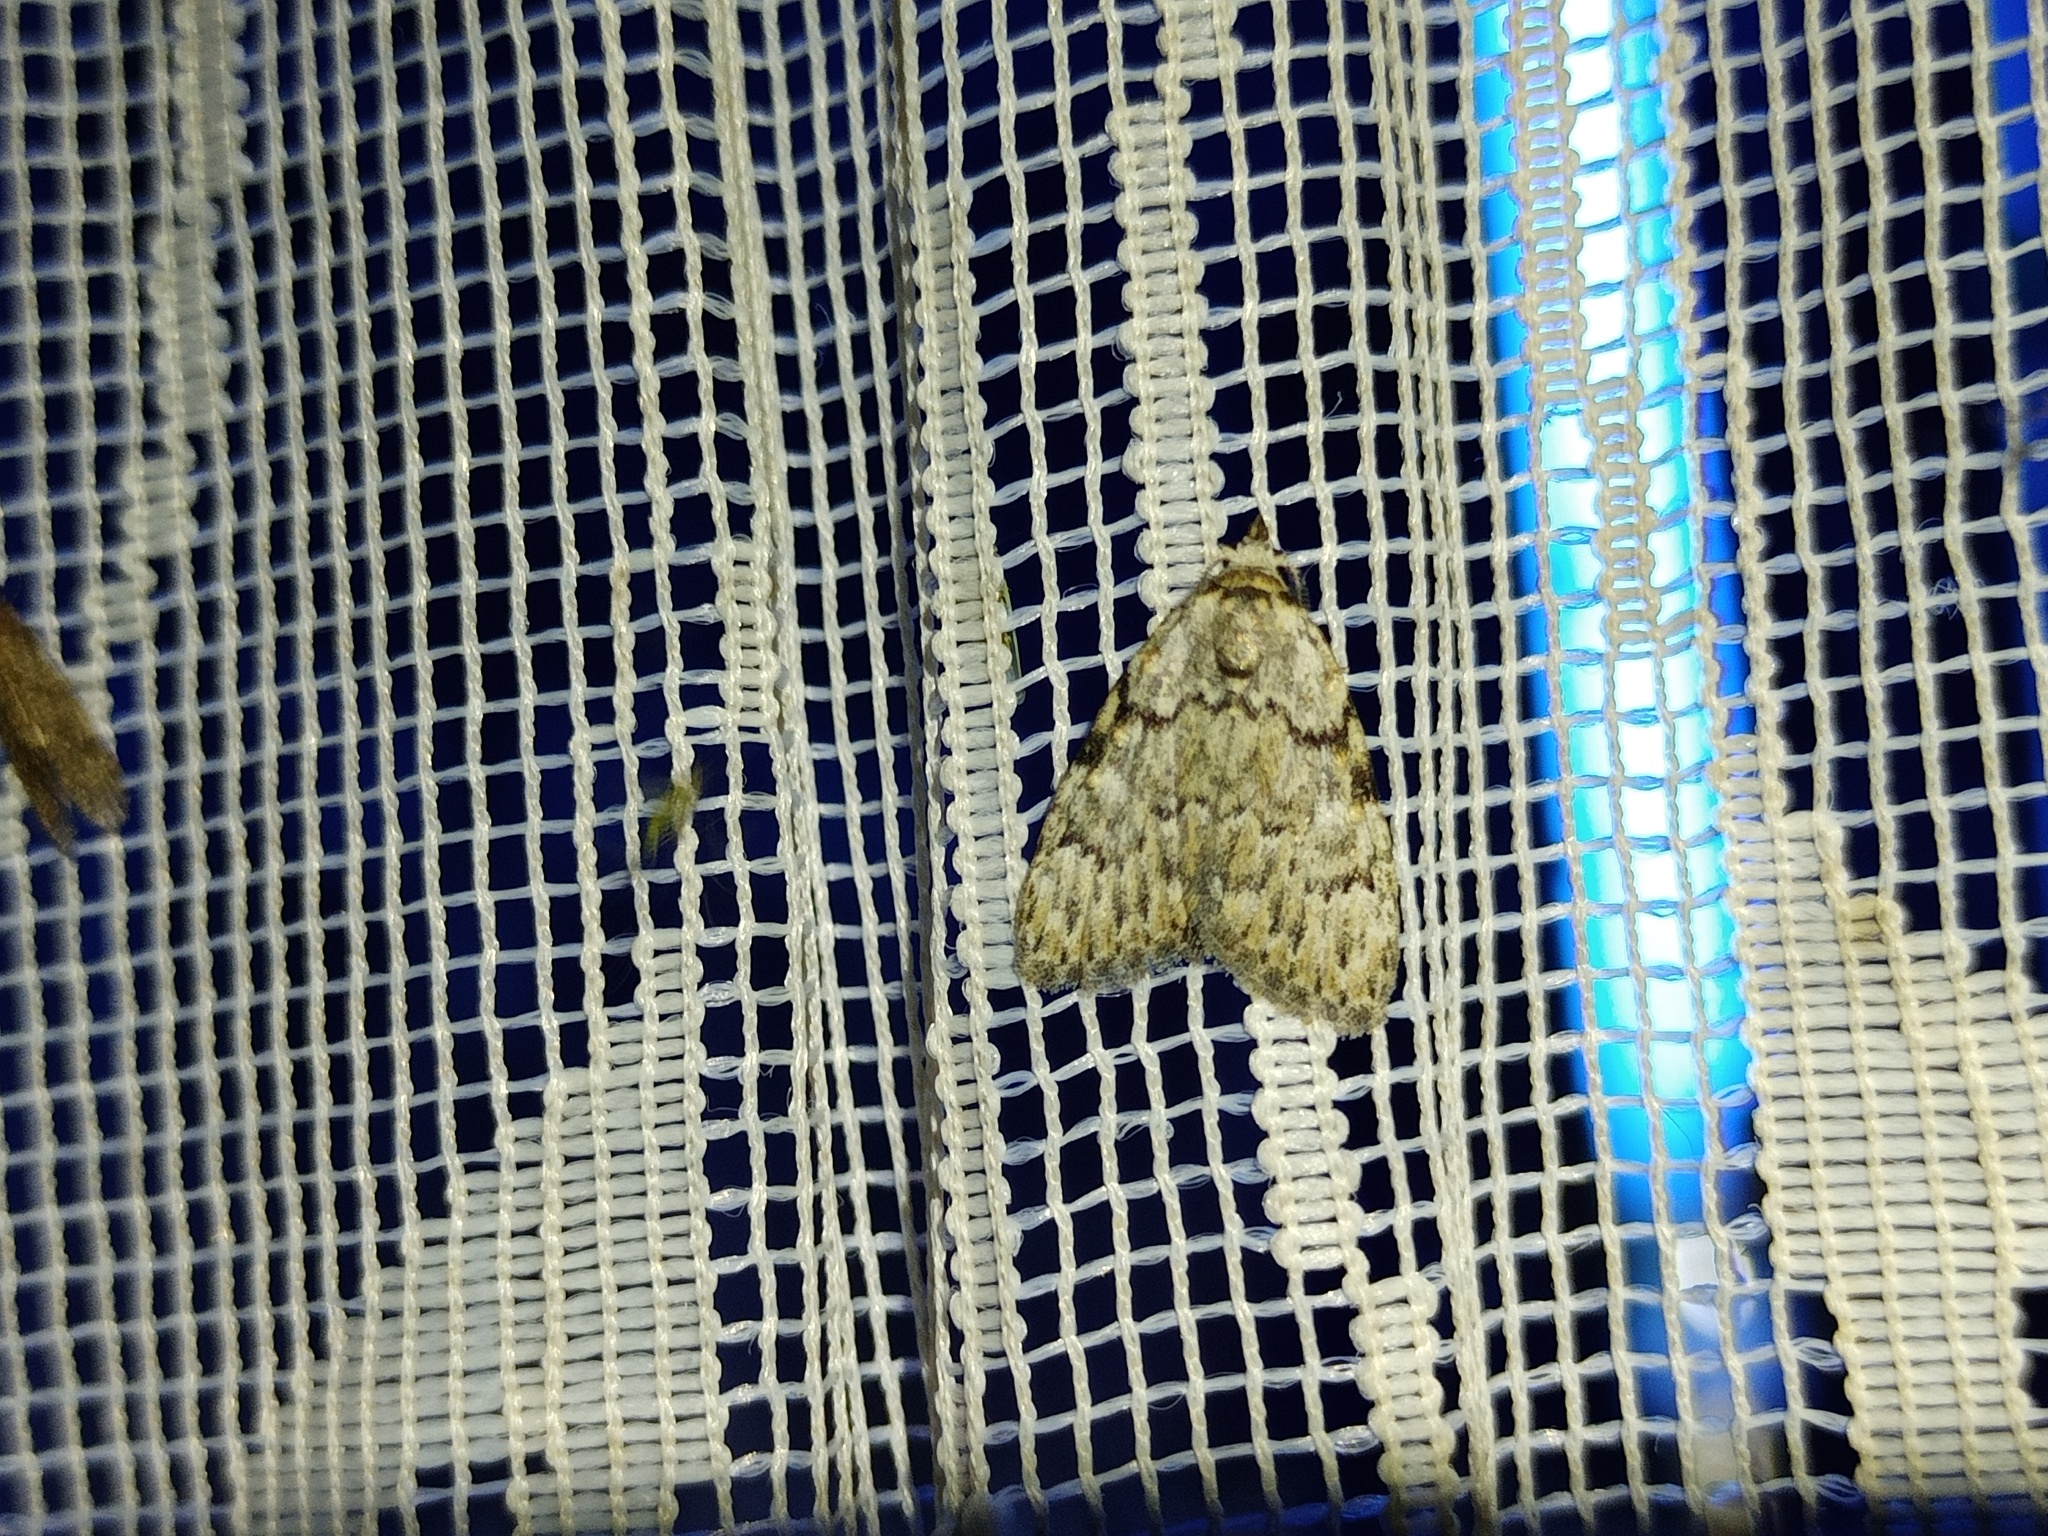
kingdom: Animalia
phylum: Arthropoda
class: Insecta
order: Lepidoptera
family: Nolidae
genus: Meganola
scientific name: Meganola strigula
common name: Small black arches
